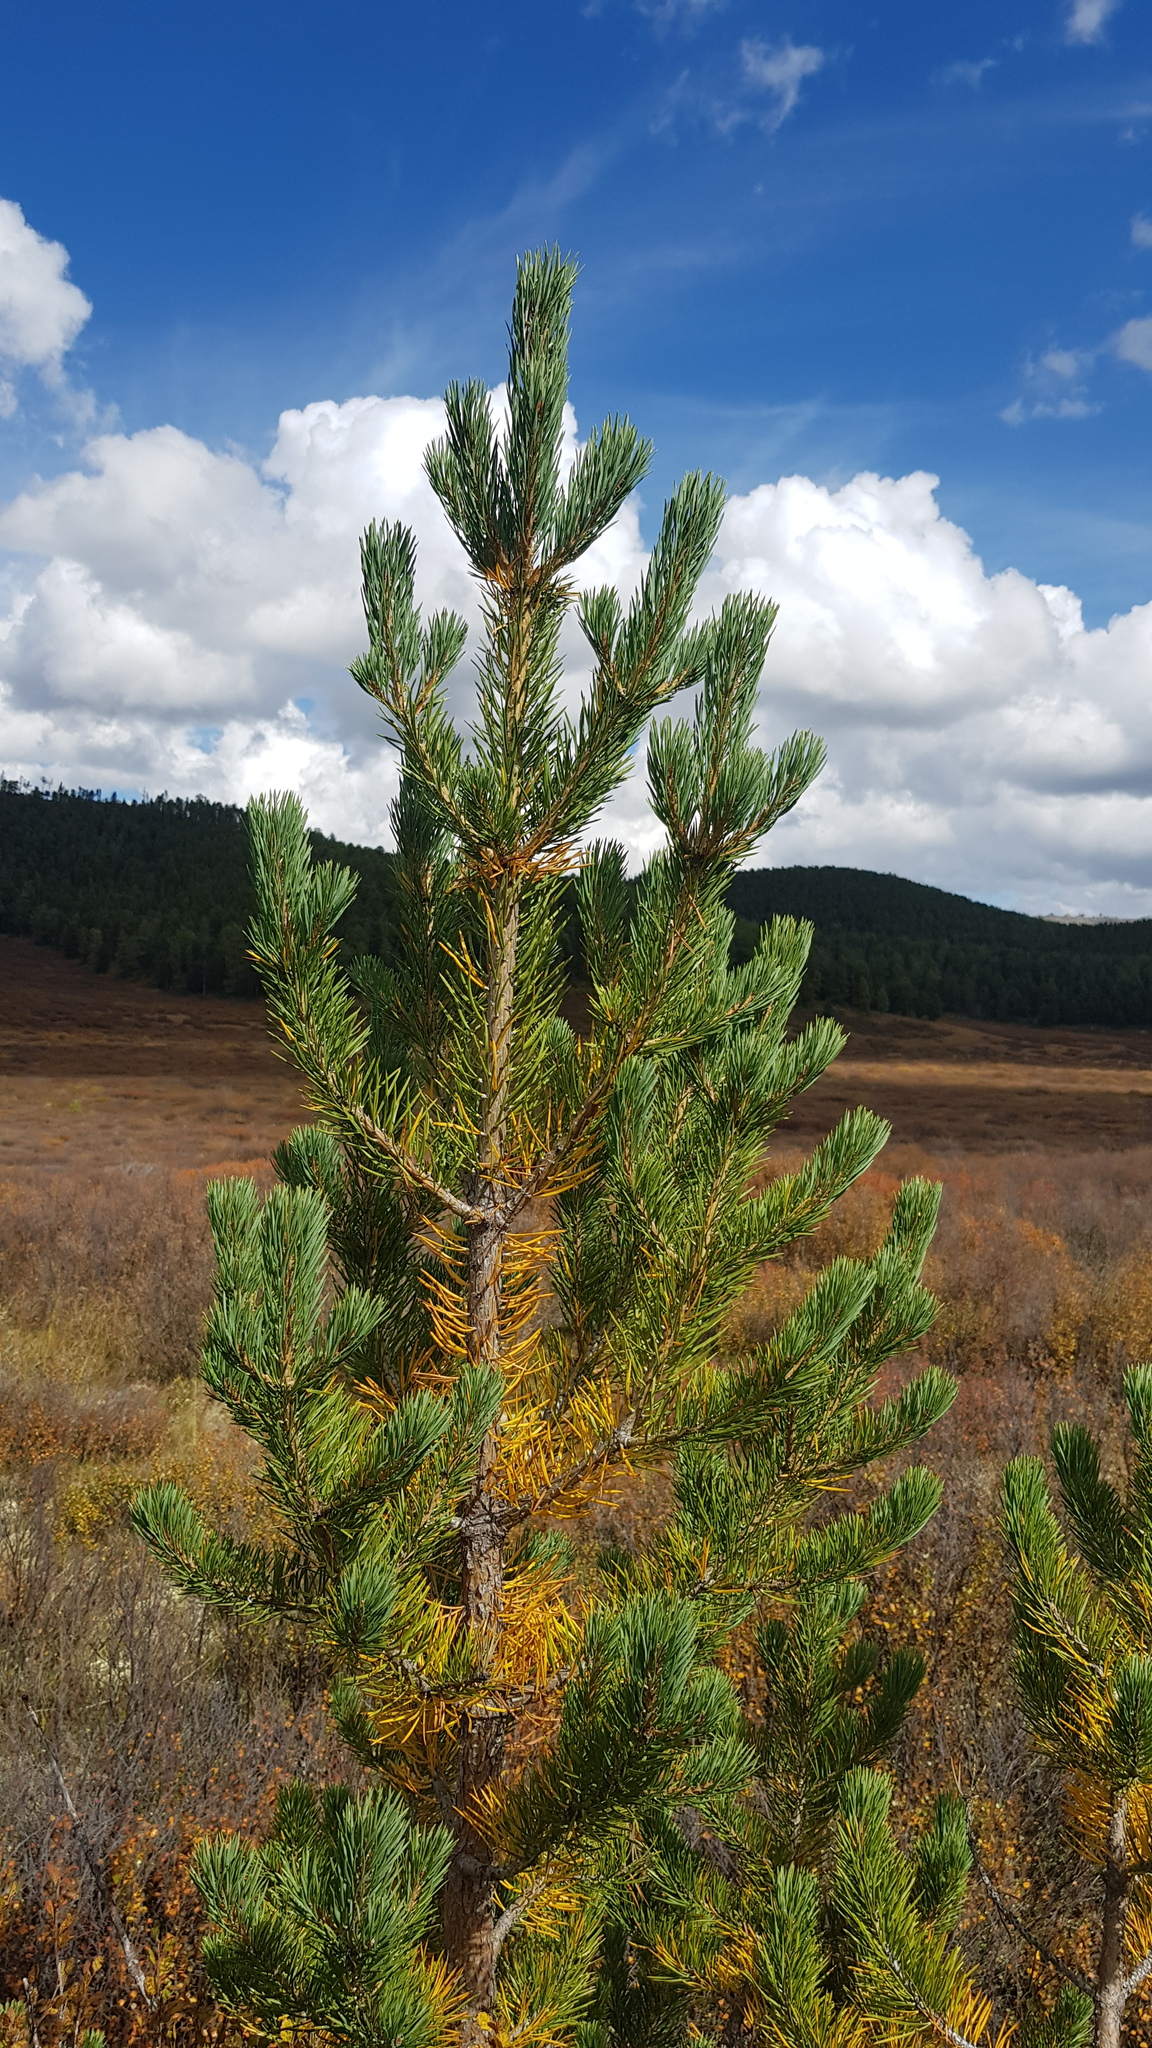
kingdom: Plantae
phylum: Tracheophyta
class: Pinopsida
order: Pinales
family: Pinaceae
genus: Pinus
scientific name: Pinus sylvestris
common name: Scots pine
